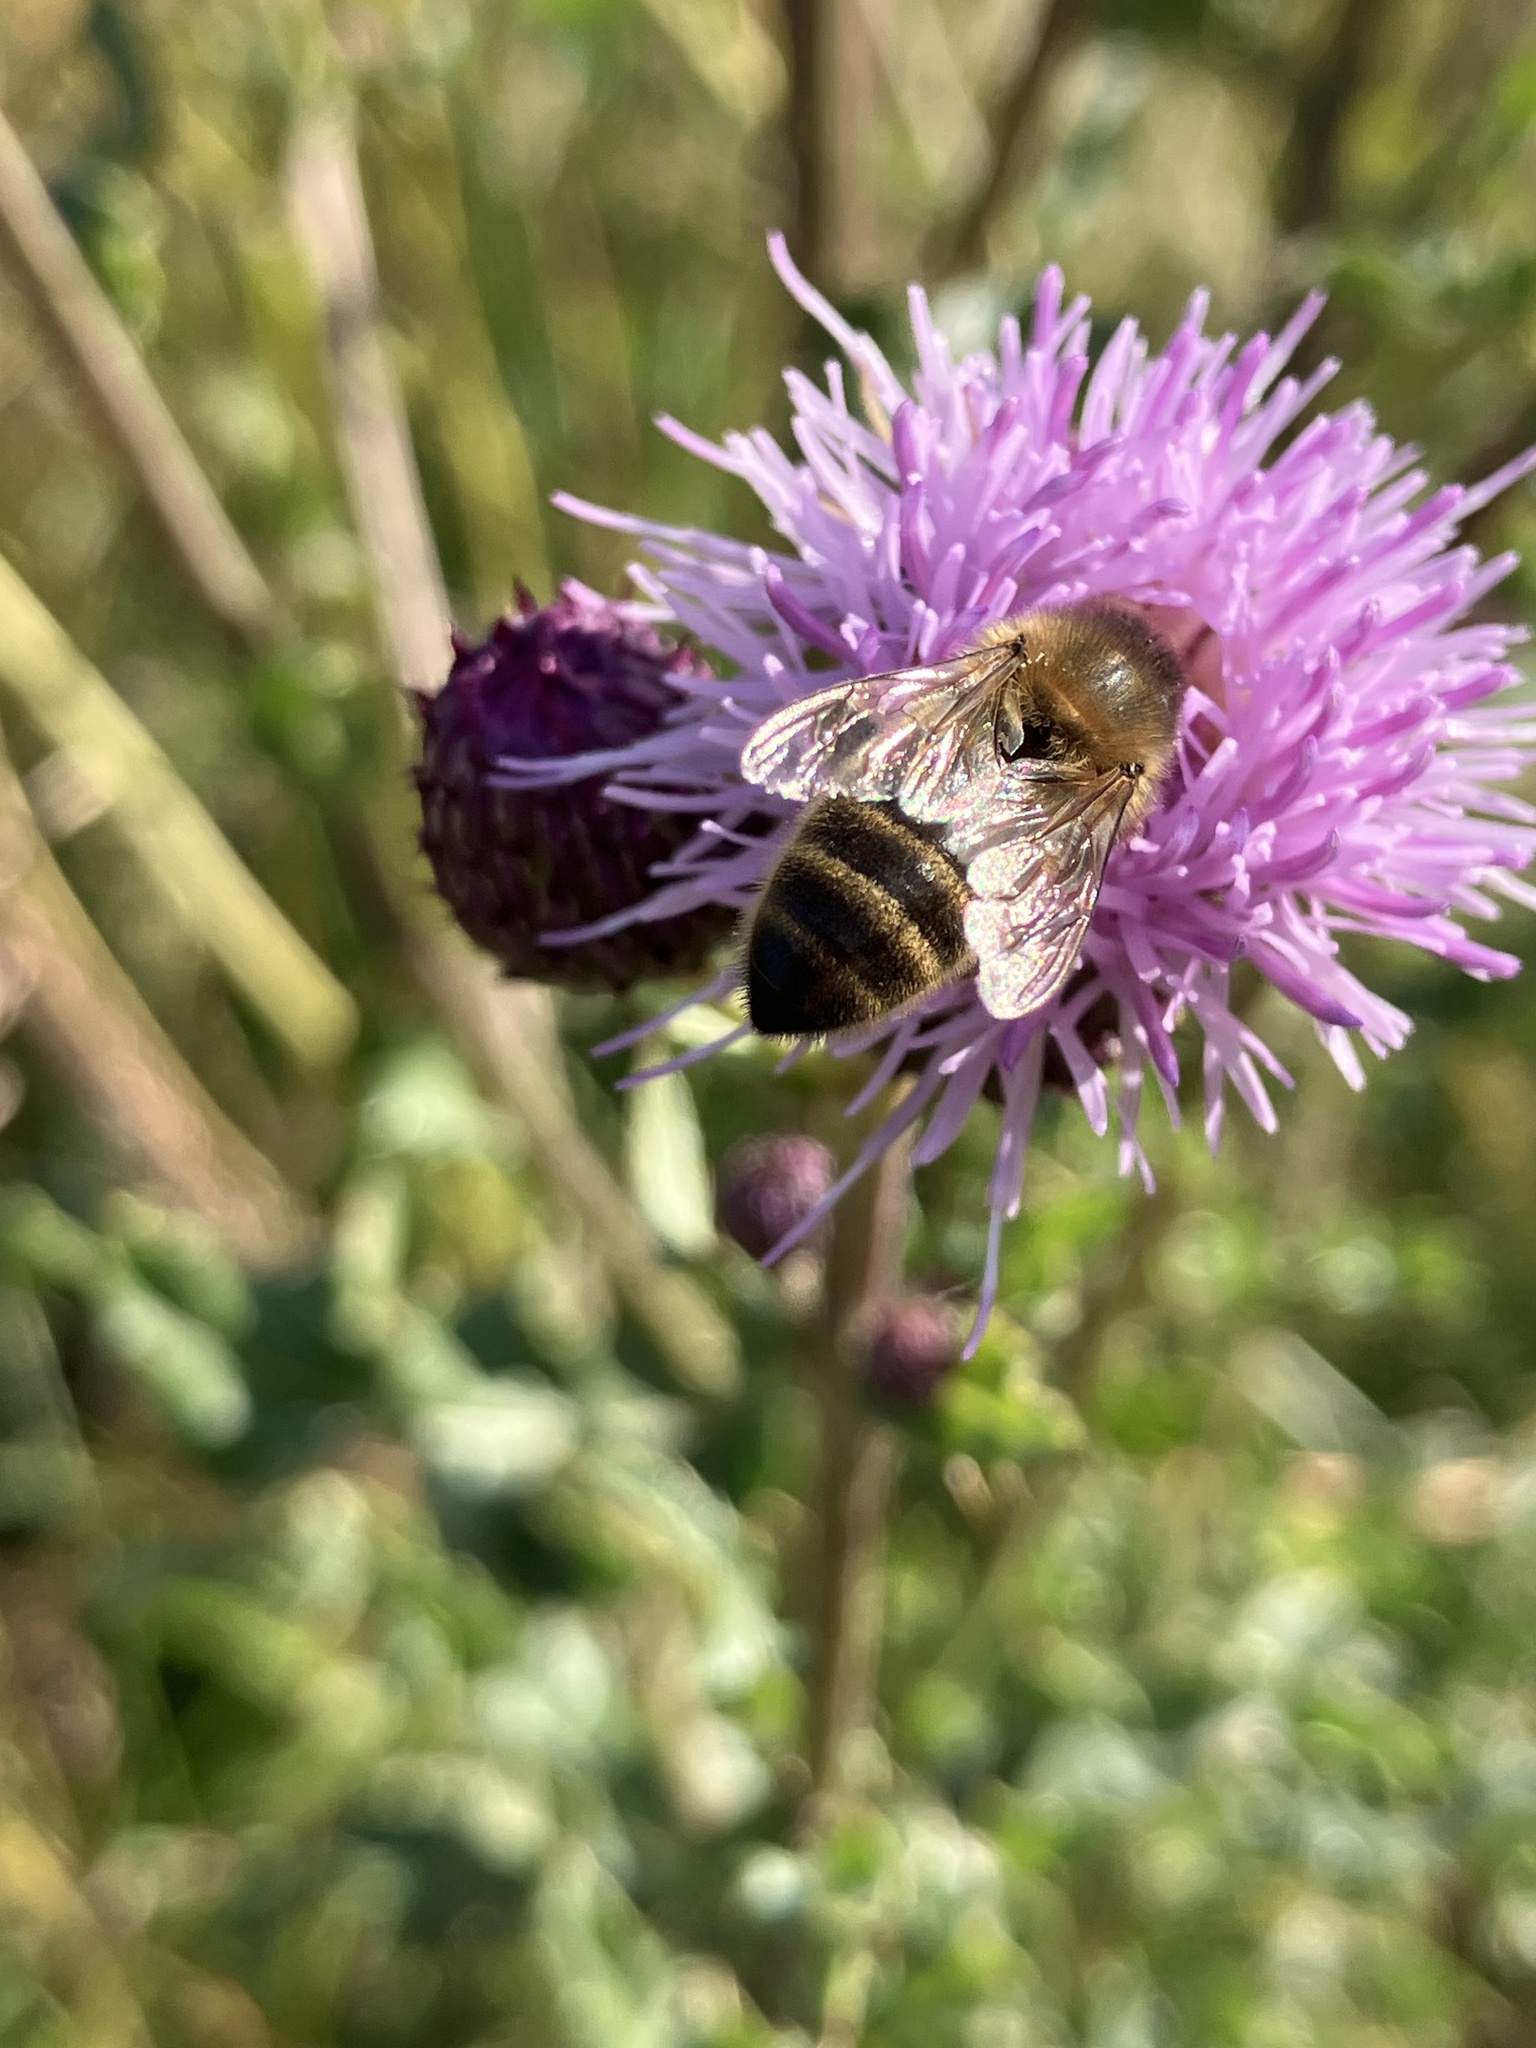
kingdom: Animalia
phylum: Arthropoda
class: Insecta
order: Hymenoptera
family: Apidae
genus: Apis
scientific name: Apis mellifera
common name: Honey bee
